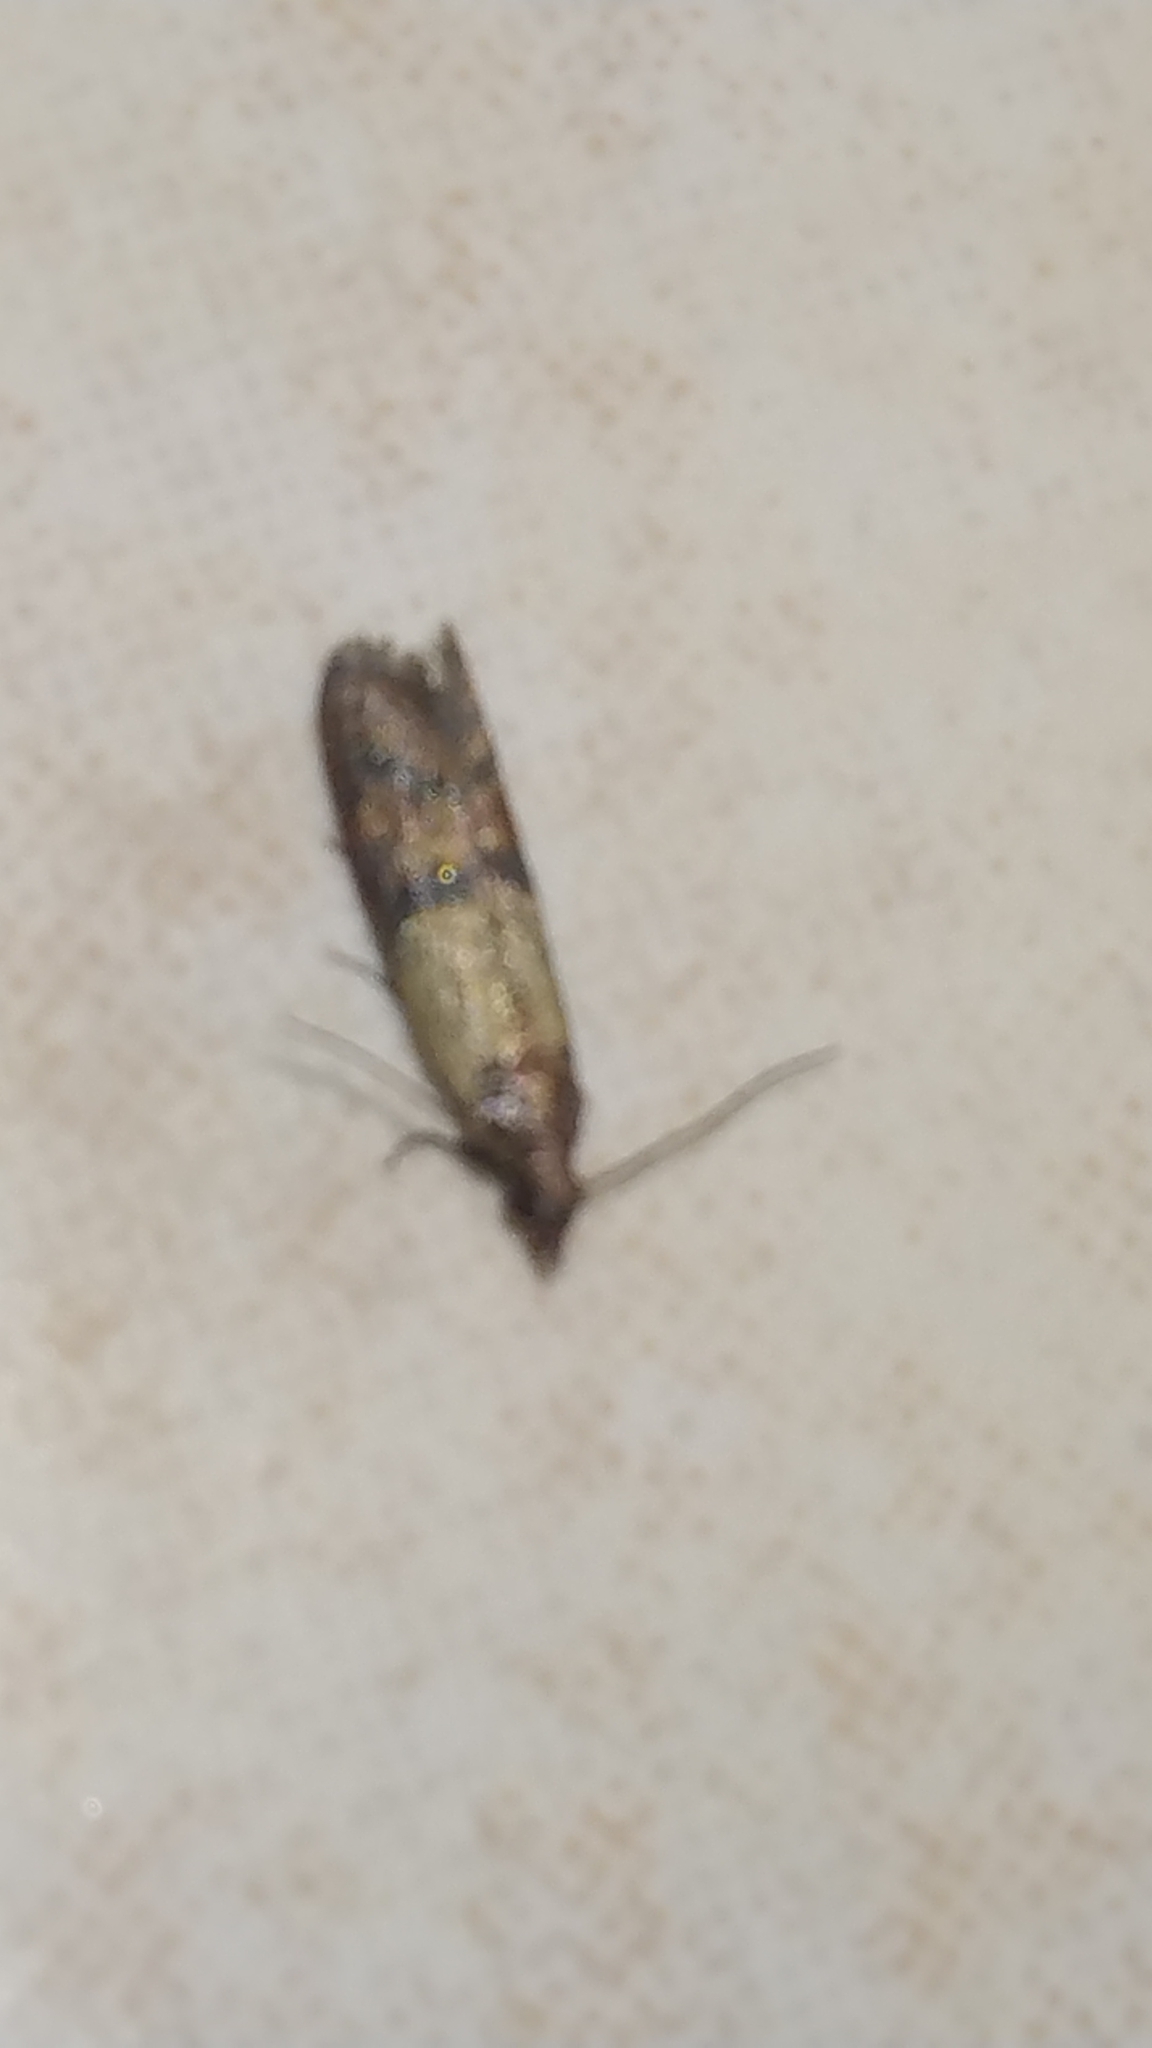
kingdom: Animalia
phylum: Arthropoda
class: Insecta
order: Lepidoptera
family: Pyralidae
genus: Plodia
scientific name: Plodia interpunctella
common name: Indian meal moth
